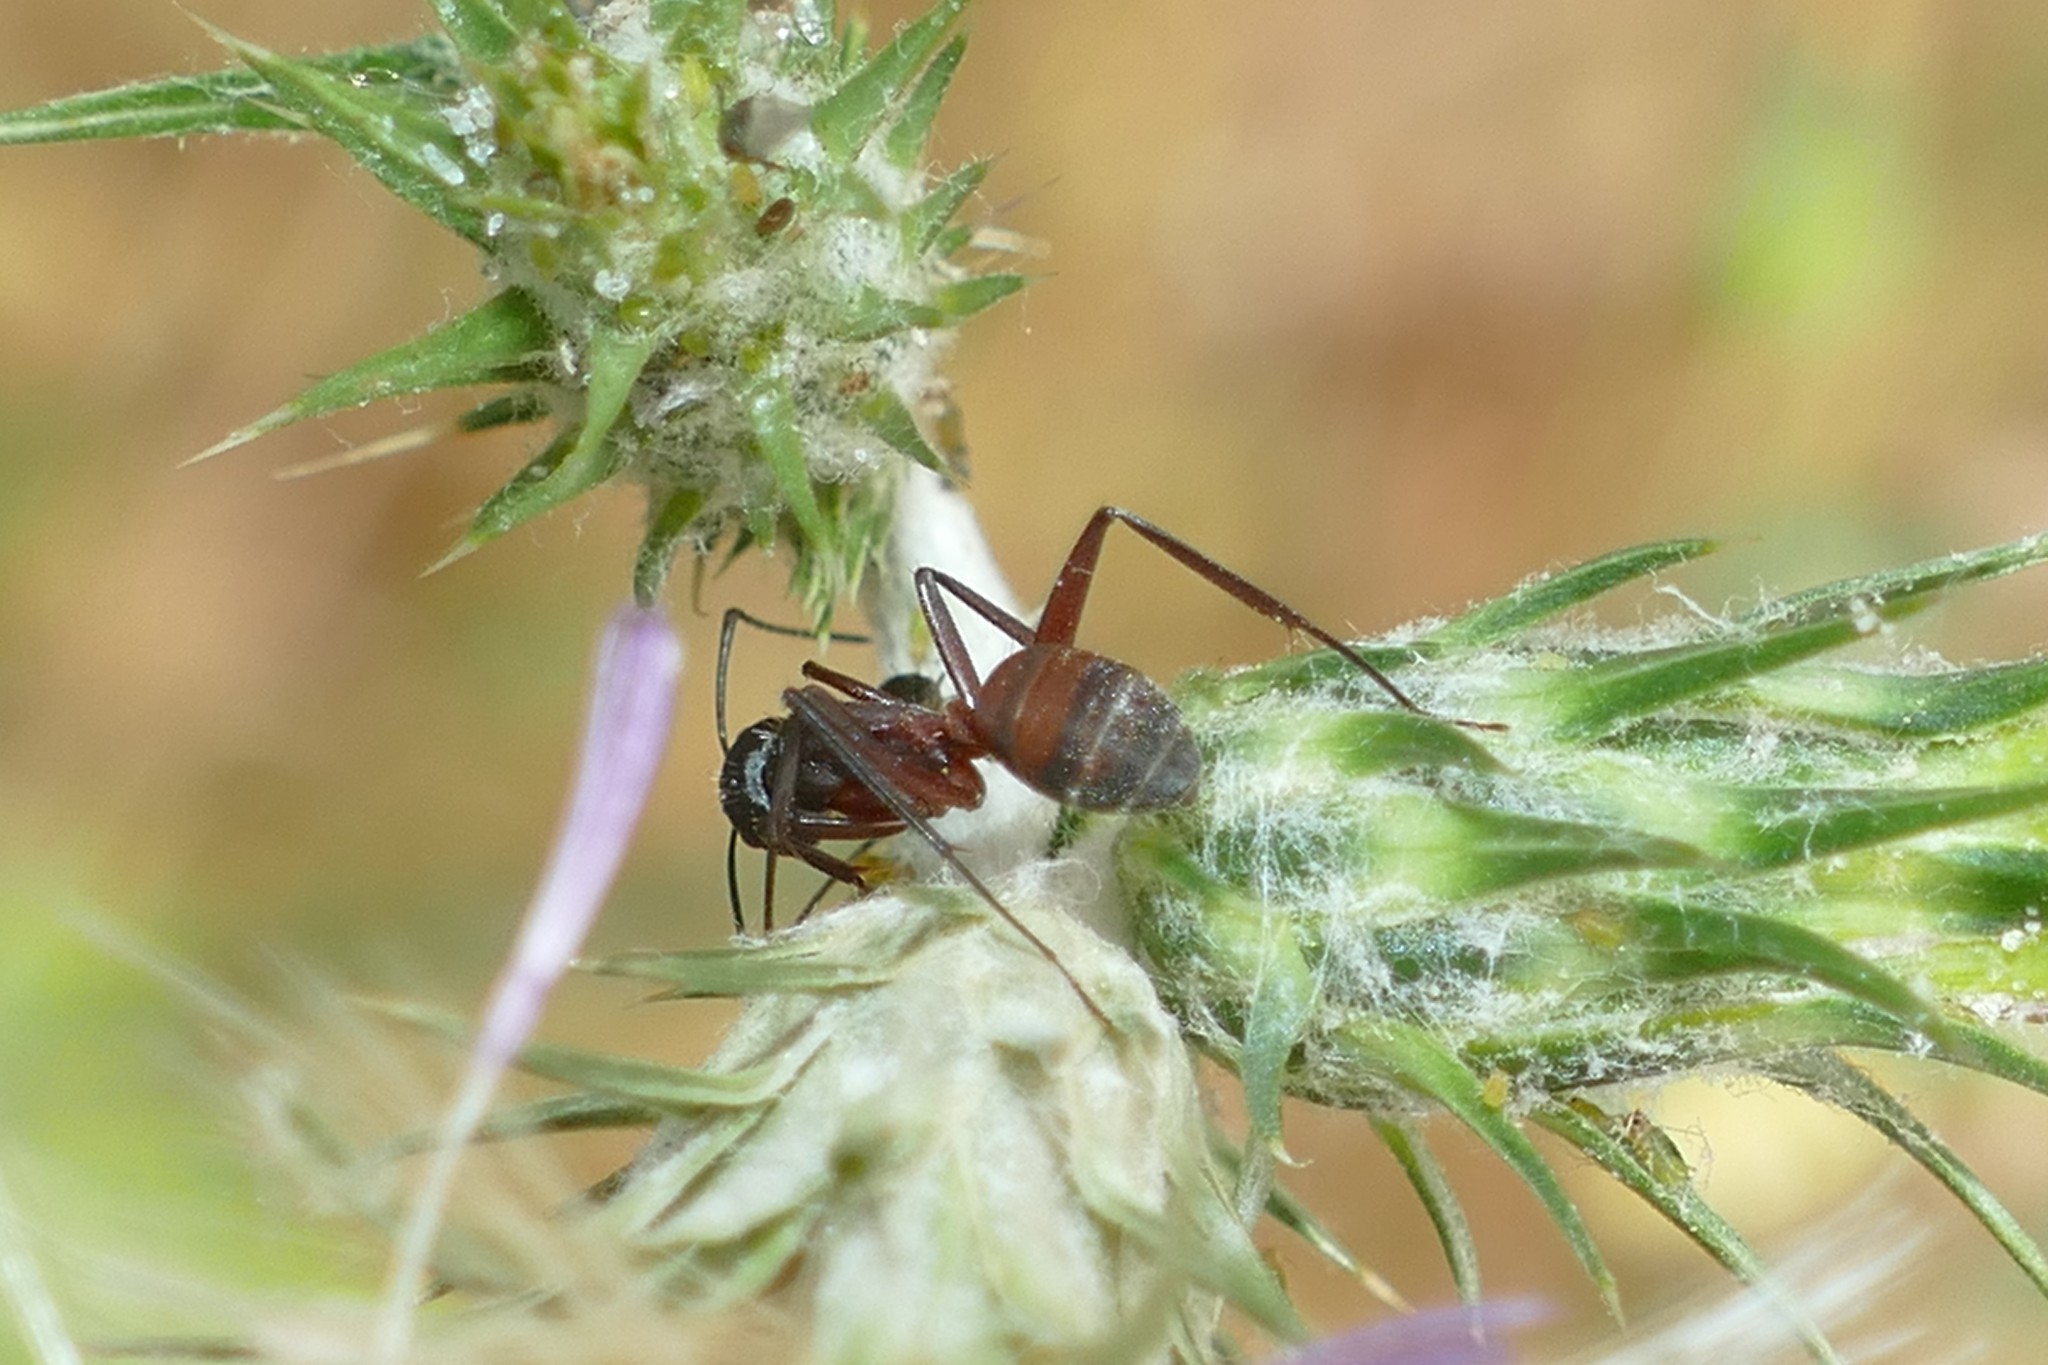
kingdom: Animalia
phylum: Arthropoda
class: Insecta
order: Hymenoptera
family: Formicidae
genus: Camponotus
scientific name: Camponotus cruentatus
